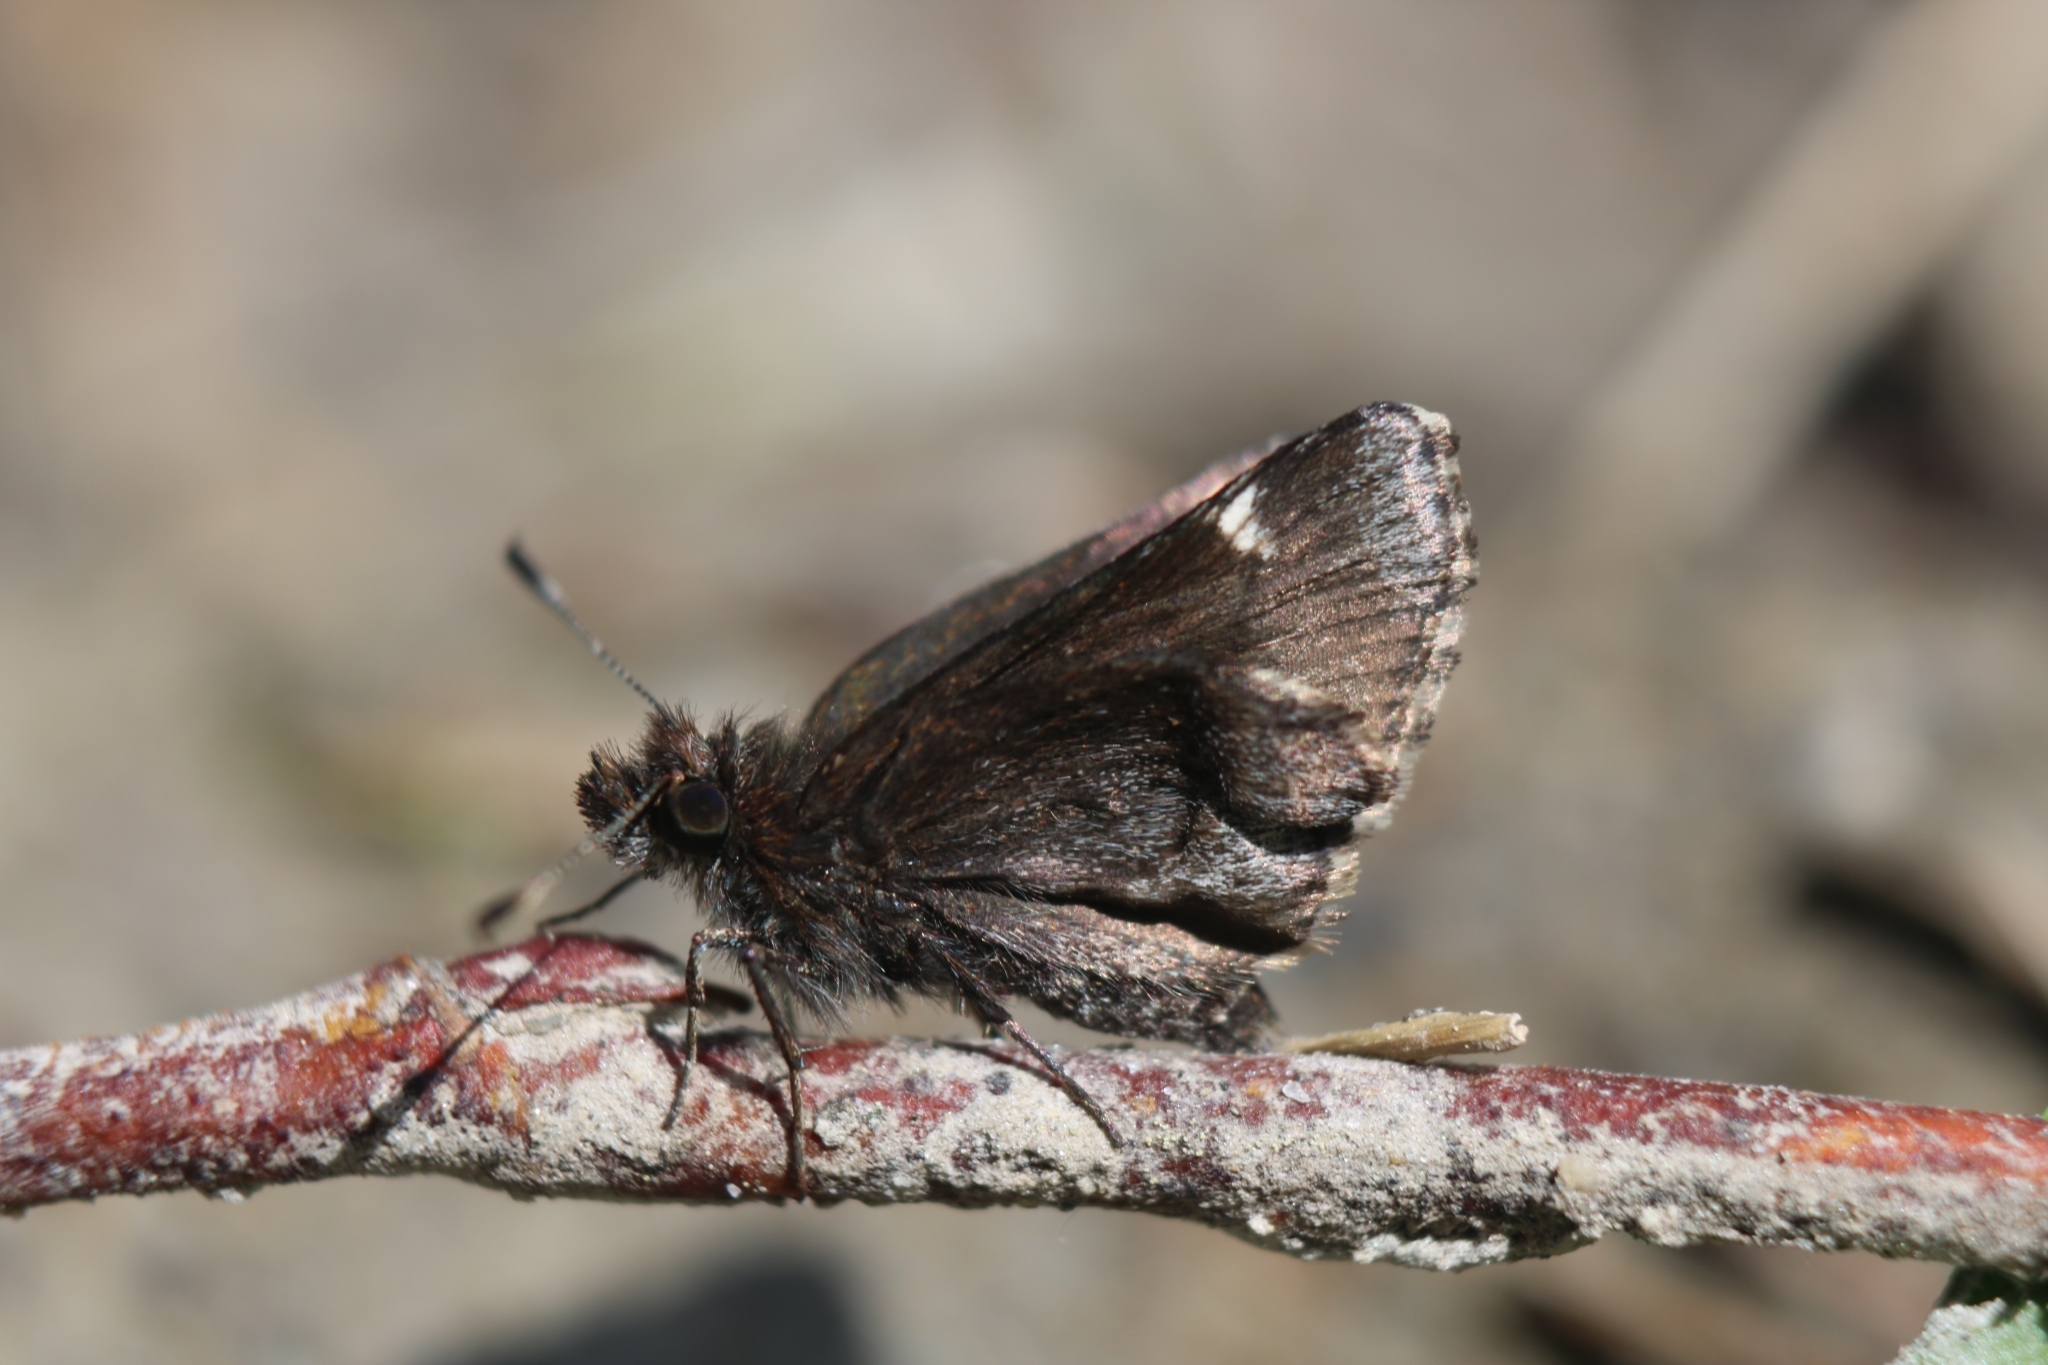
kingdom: Animalia
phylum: Arthropoda
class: Insecta
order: Lepidoptera
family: Hesperiidae
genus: Mastor
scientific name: Mastor vialis
